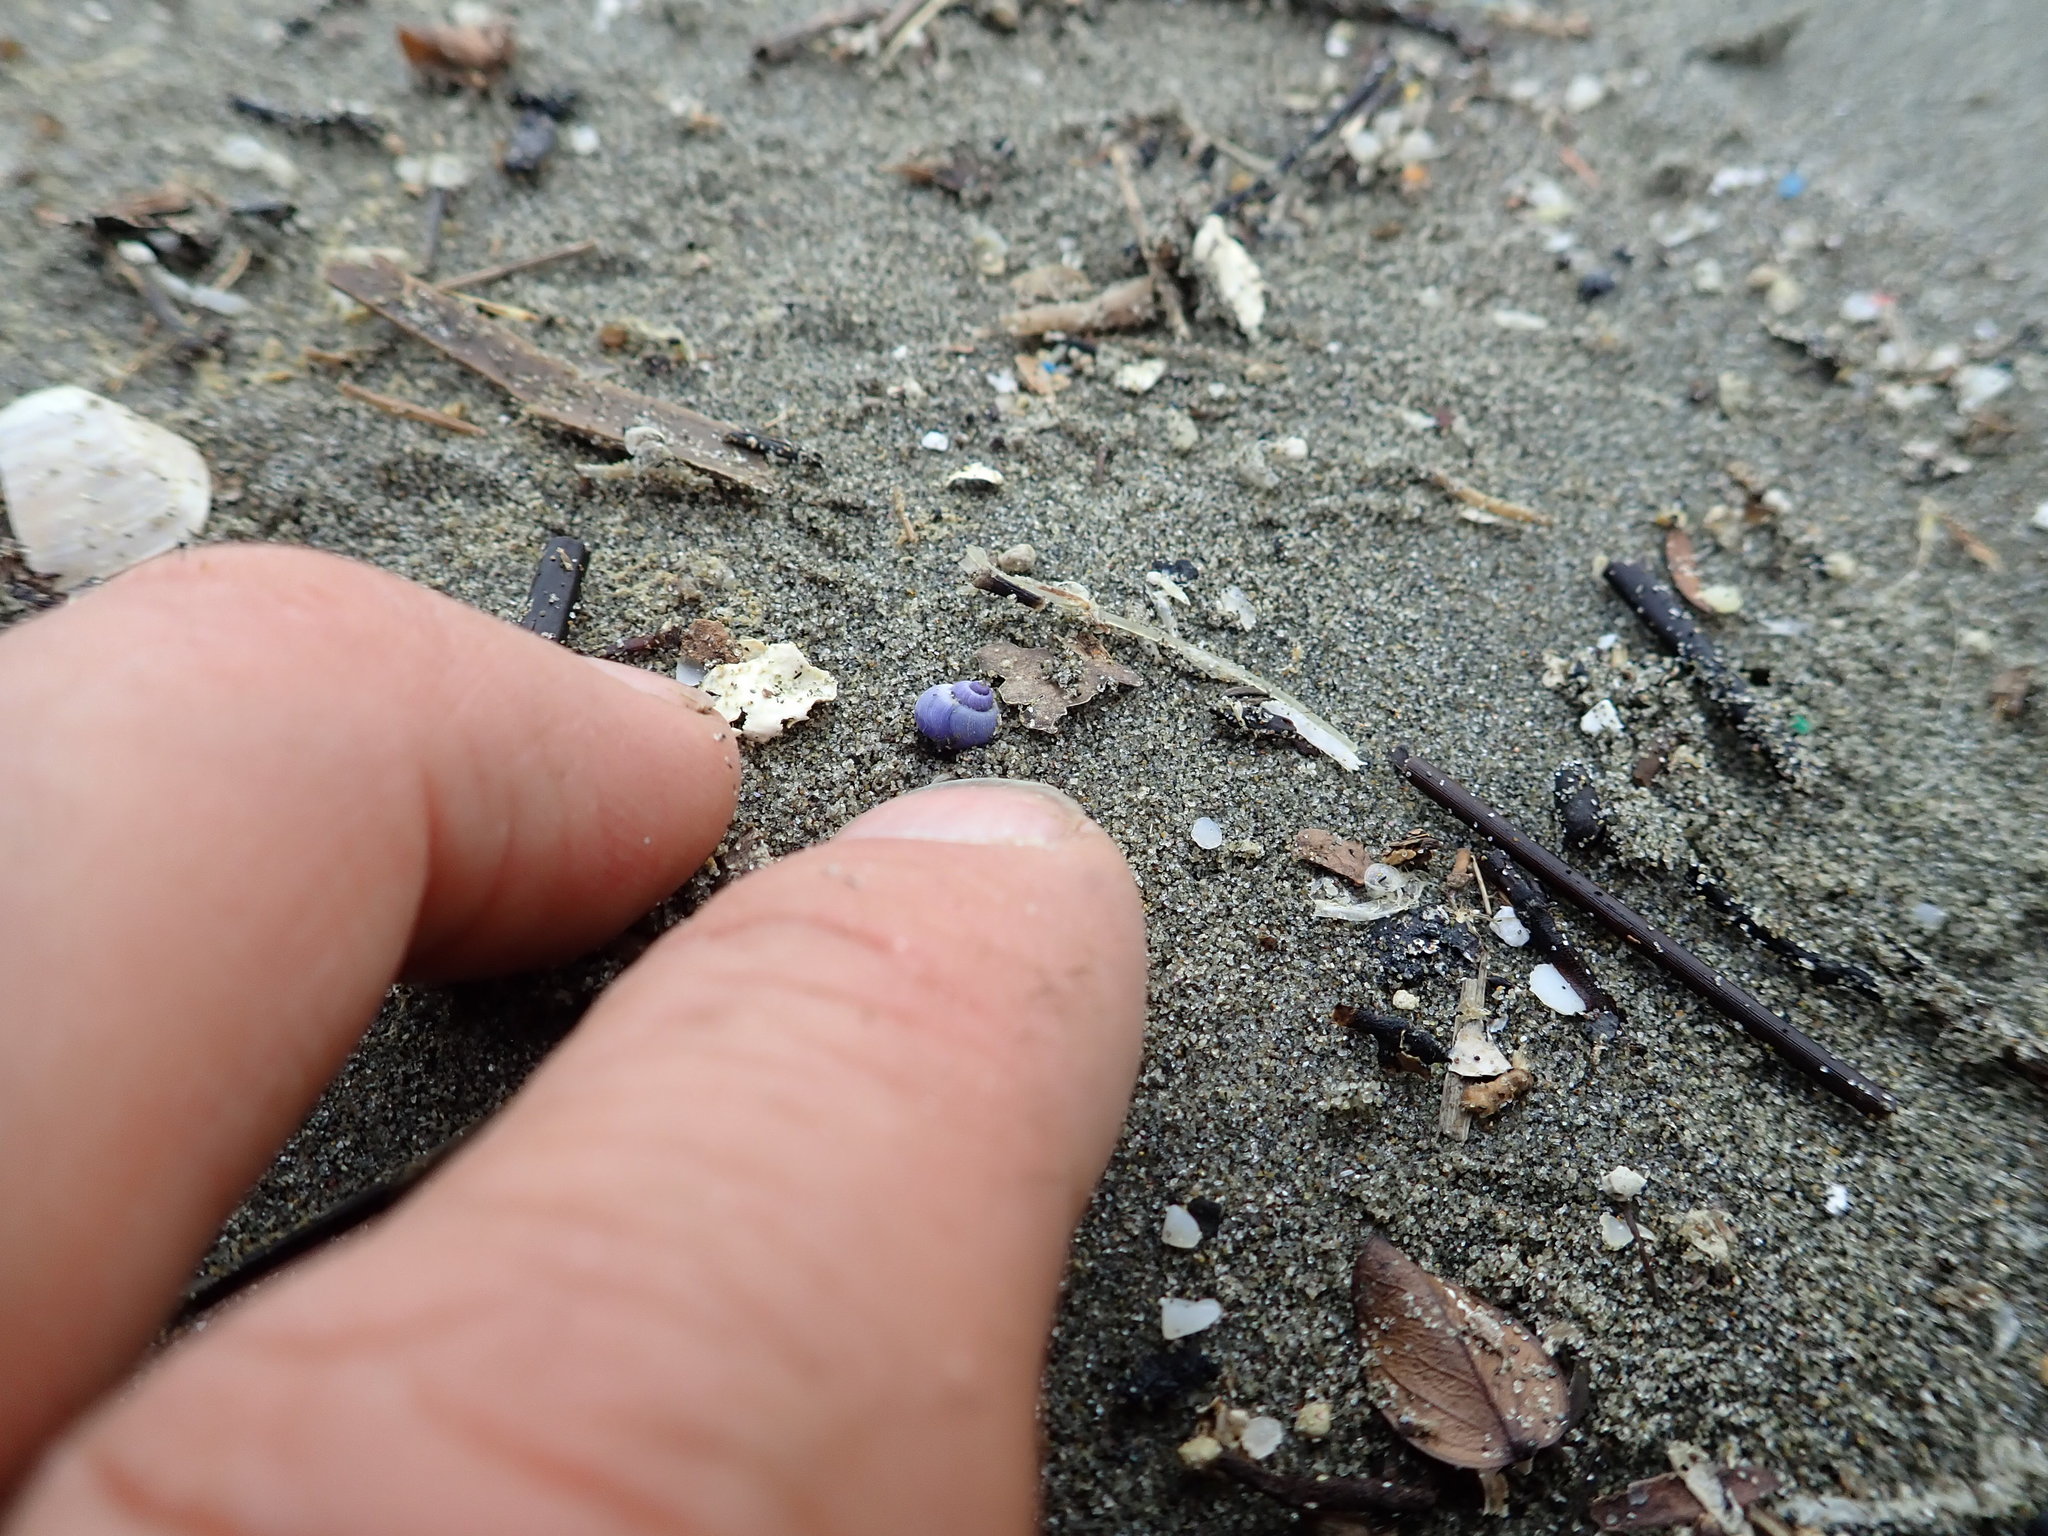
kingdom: Animalia
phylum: Mollusca
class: Gastropoda
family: Epitoniidae
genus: Janthina
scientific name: Janthina exigua
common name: Dwarf janthina
